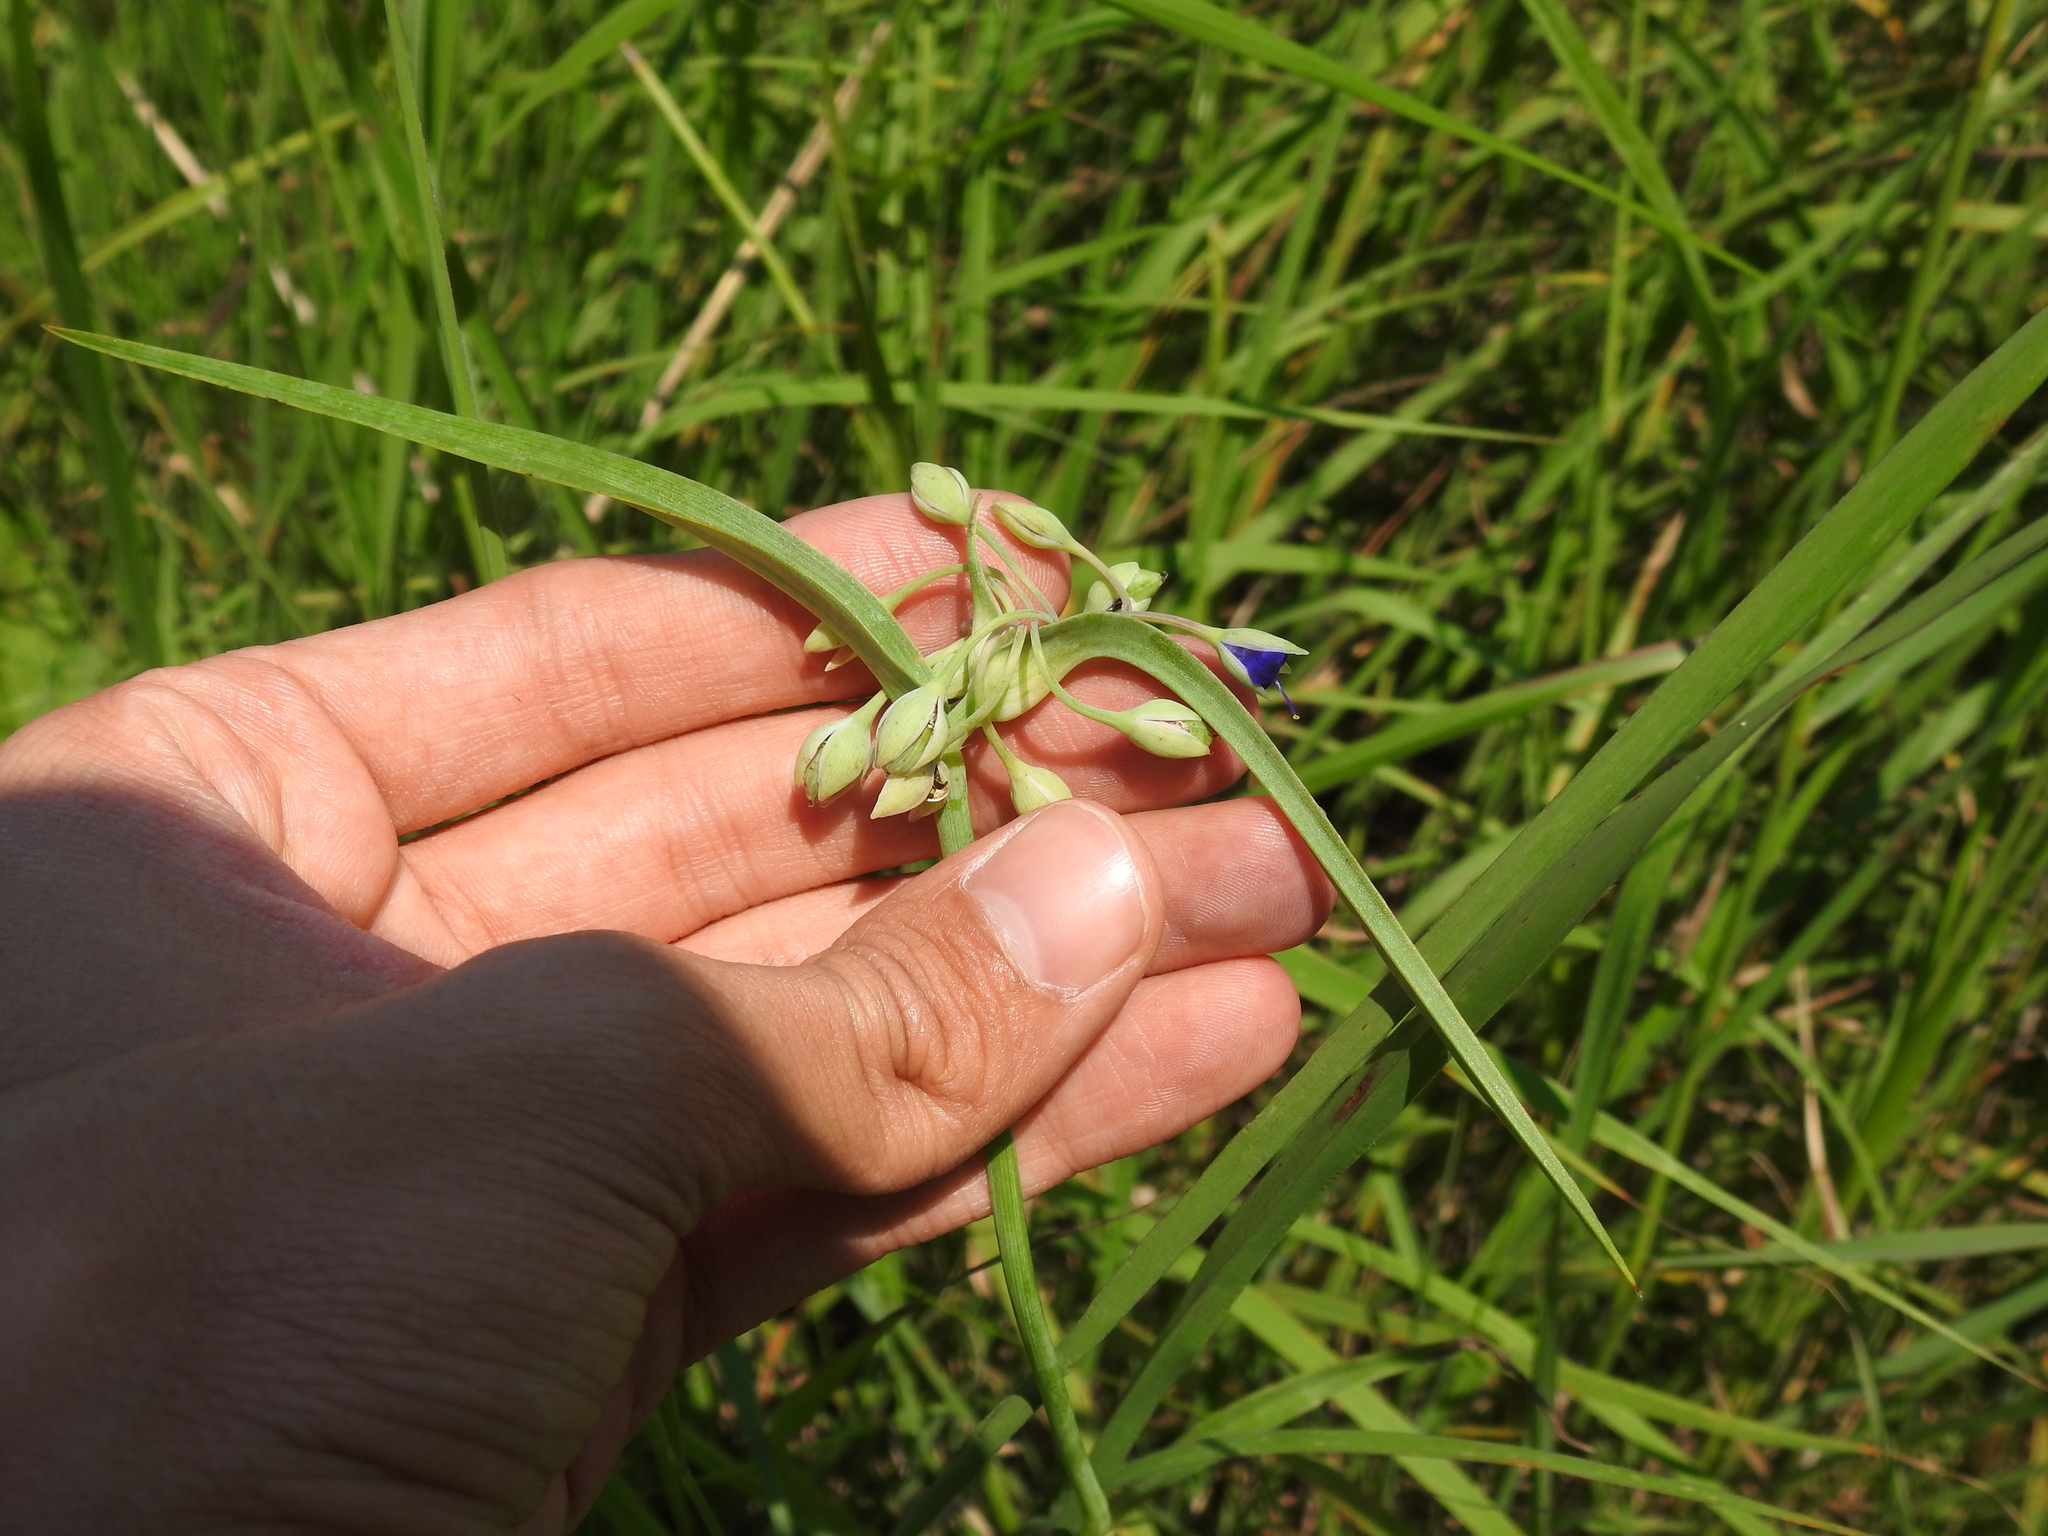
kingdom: Plantae
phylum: Tracheophyta
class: Liliopsida
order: Commelinales
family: Commelinaceae
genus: Tradescantia
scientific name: Tradescantia ohiensis
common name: Ohio spiderwort
